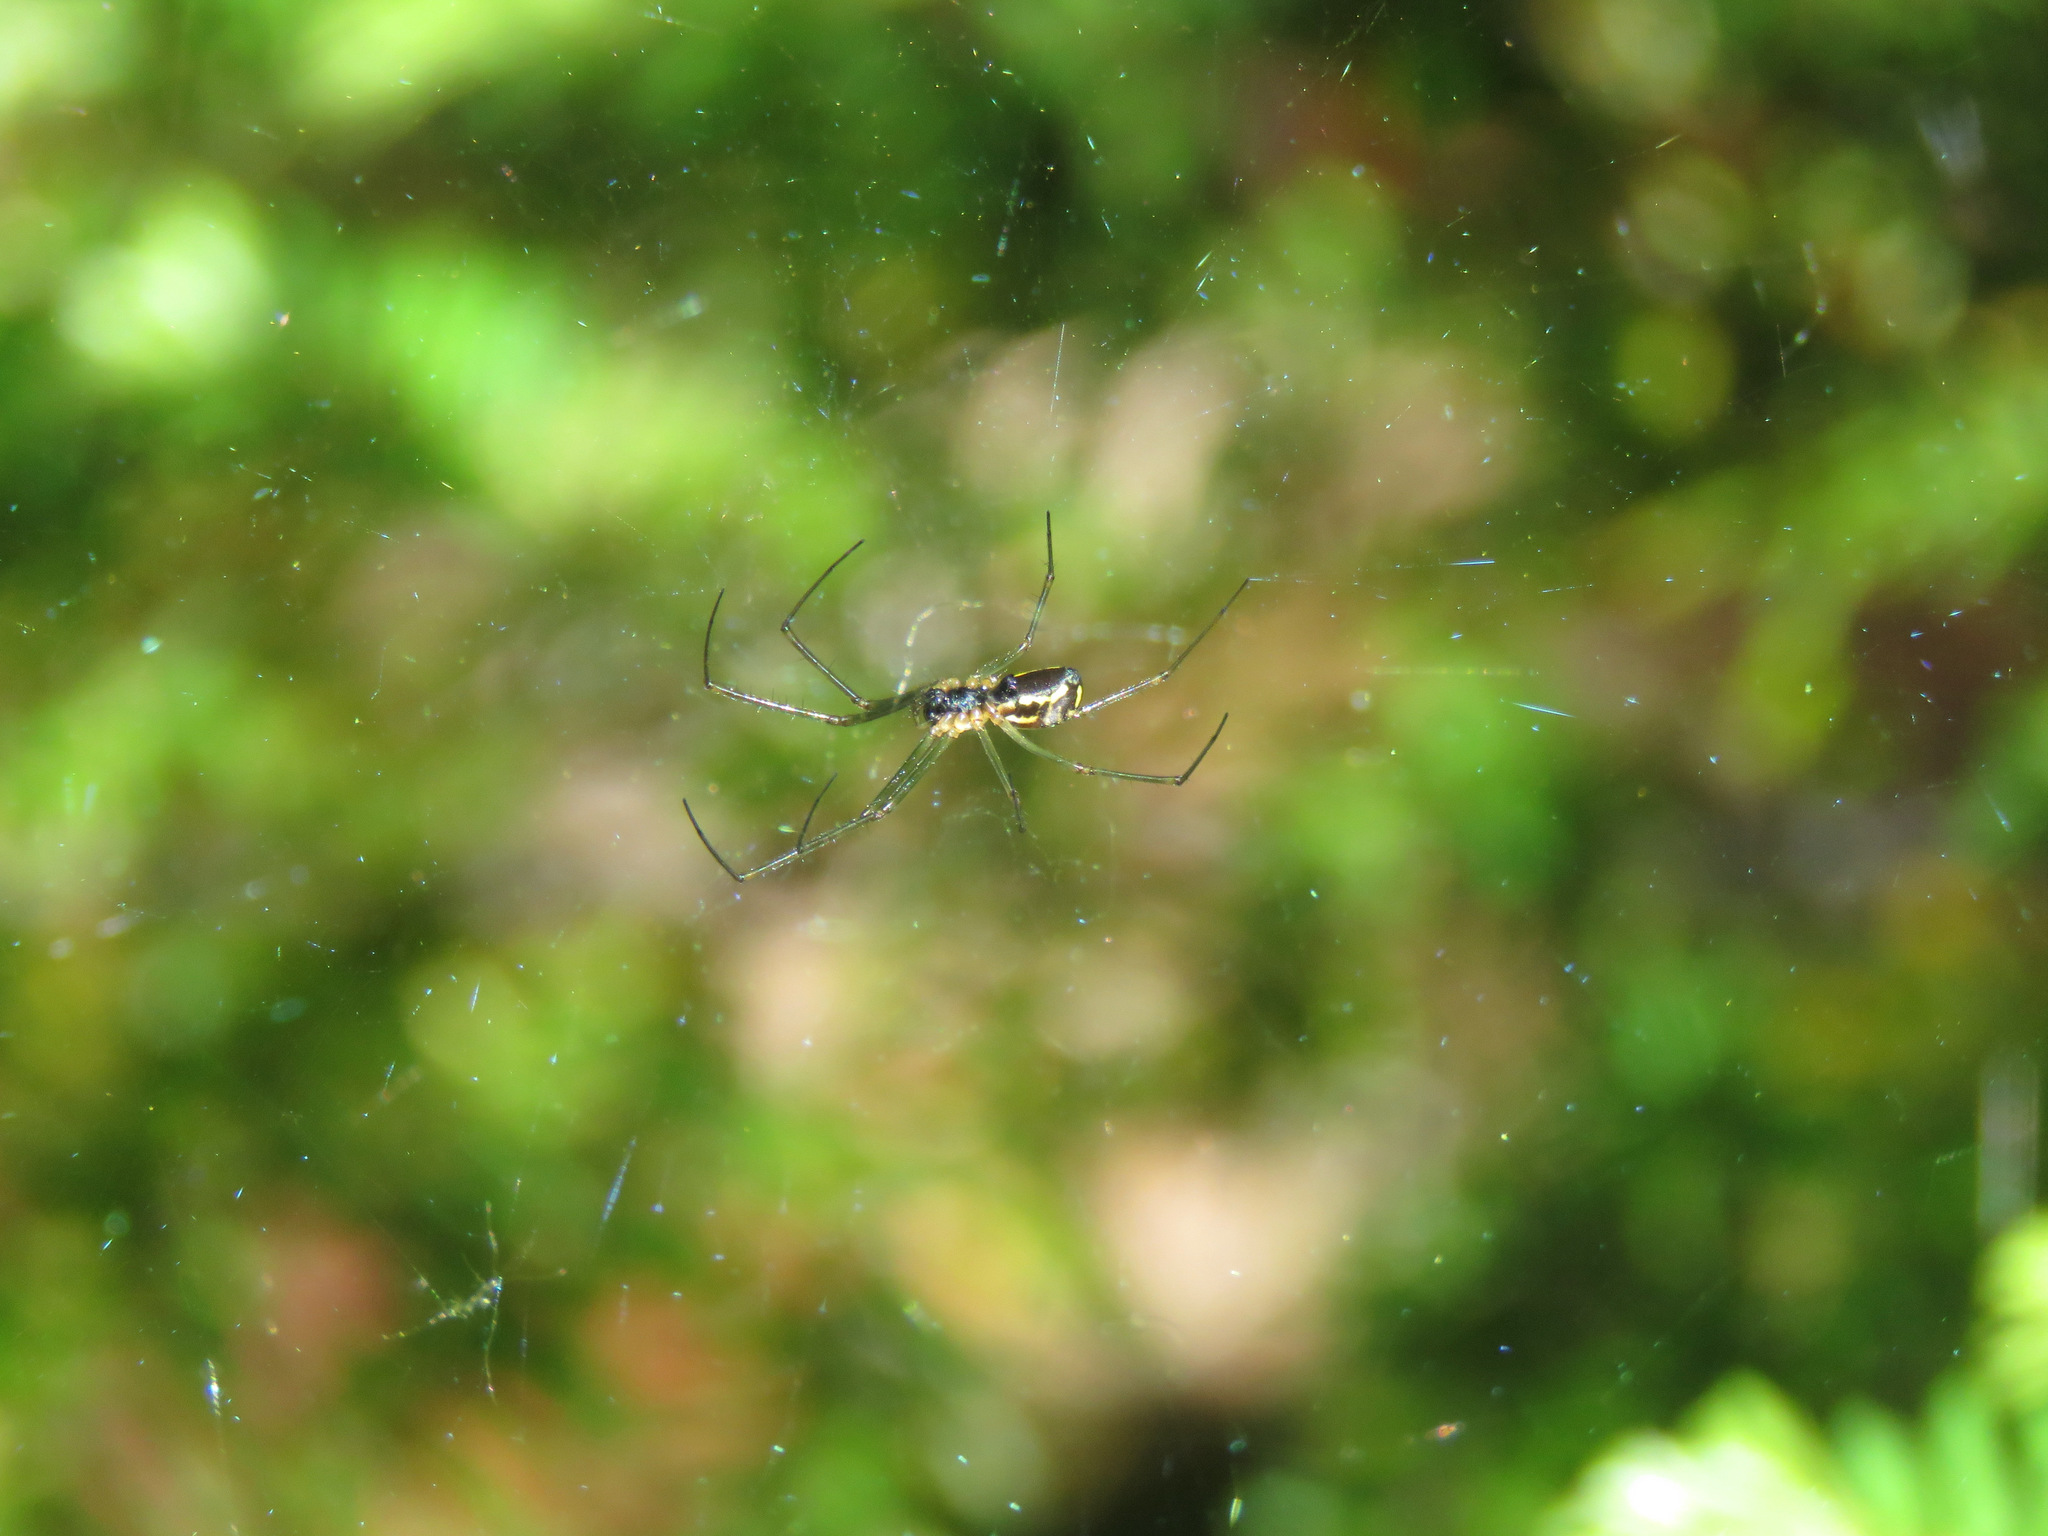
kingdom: Animalia
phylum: Arthropoda
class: Arachnida
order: Araneae
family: Linyphiidae
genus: Neriene
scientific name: Neriene radiata
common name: Filmy dome spider
